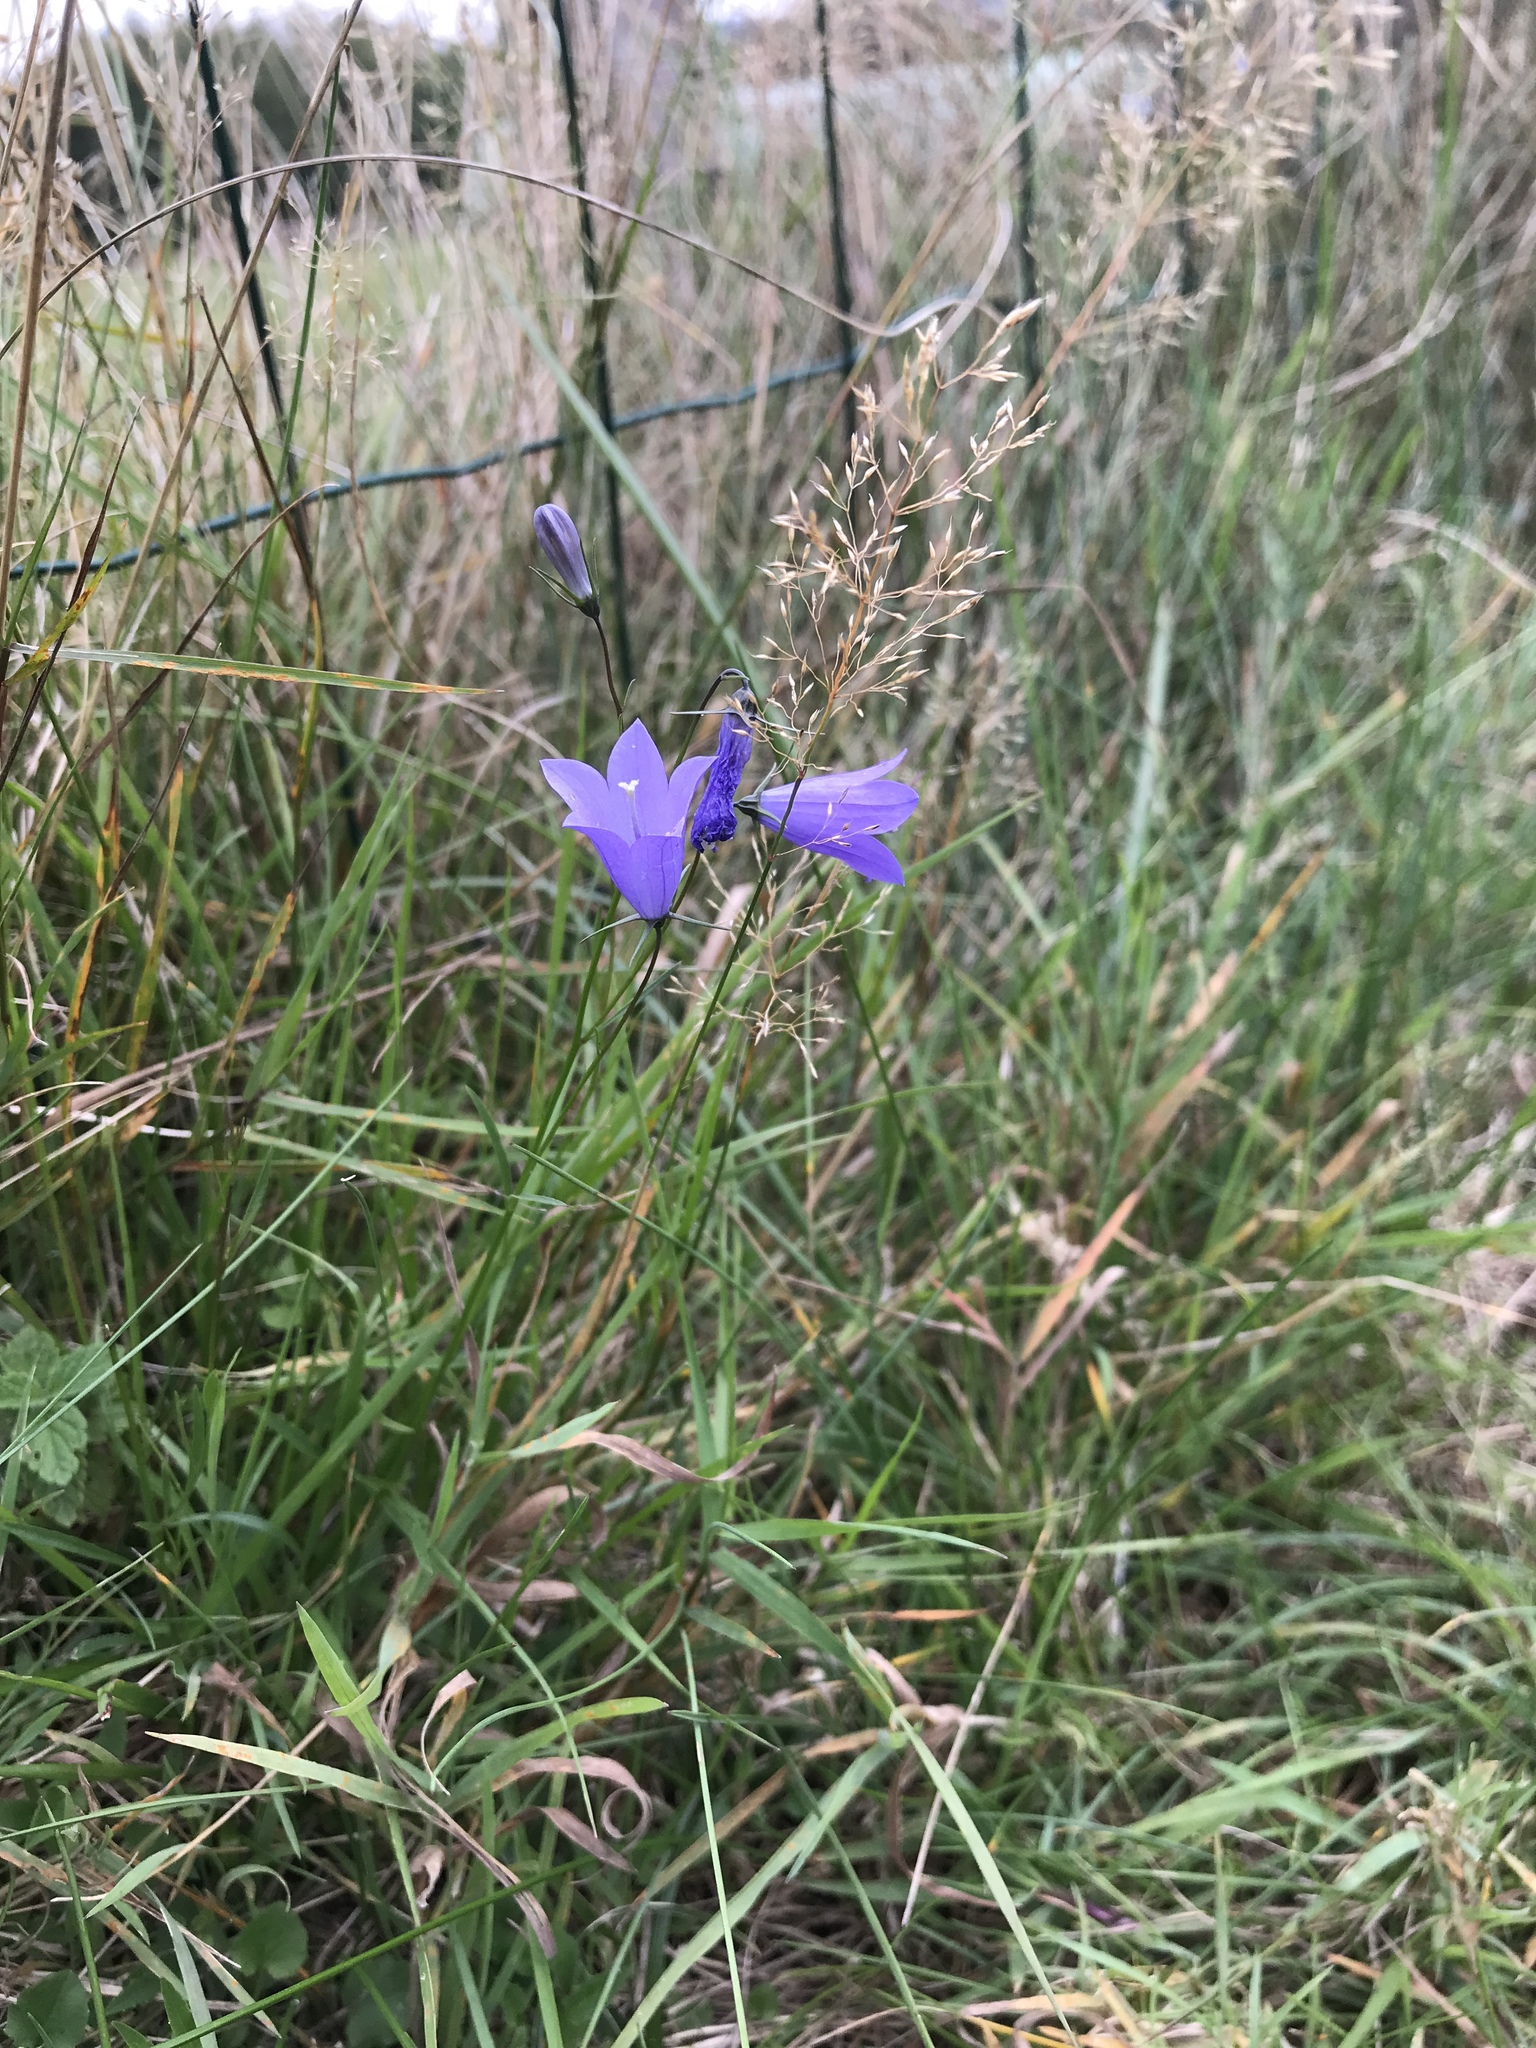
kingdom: Plantae
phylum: Tracheophyta
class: Magnoliopsida
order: Asterales
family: Campanulaceae
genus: Campanula
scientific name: Campanula rotundifolia
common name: Harebell
